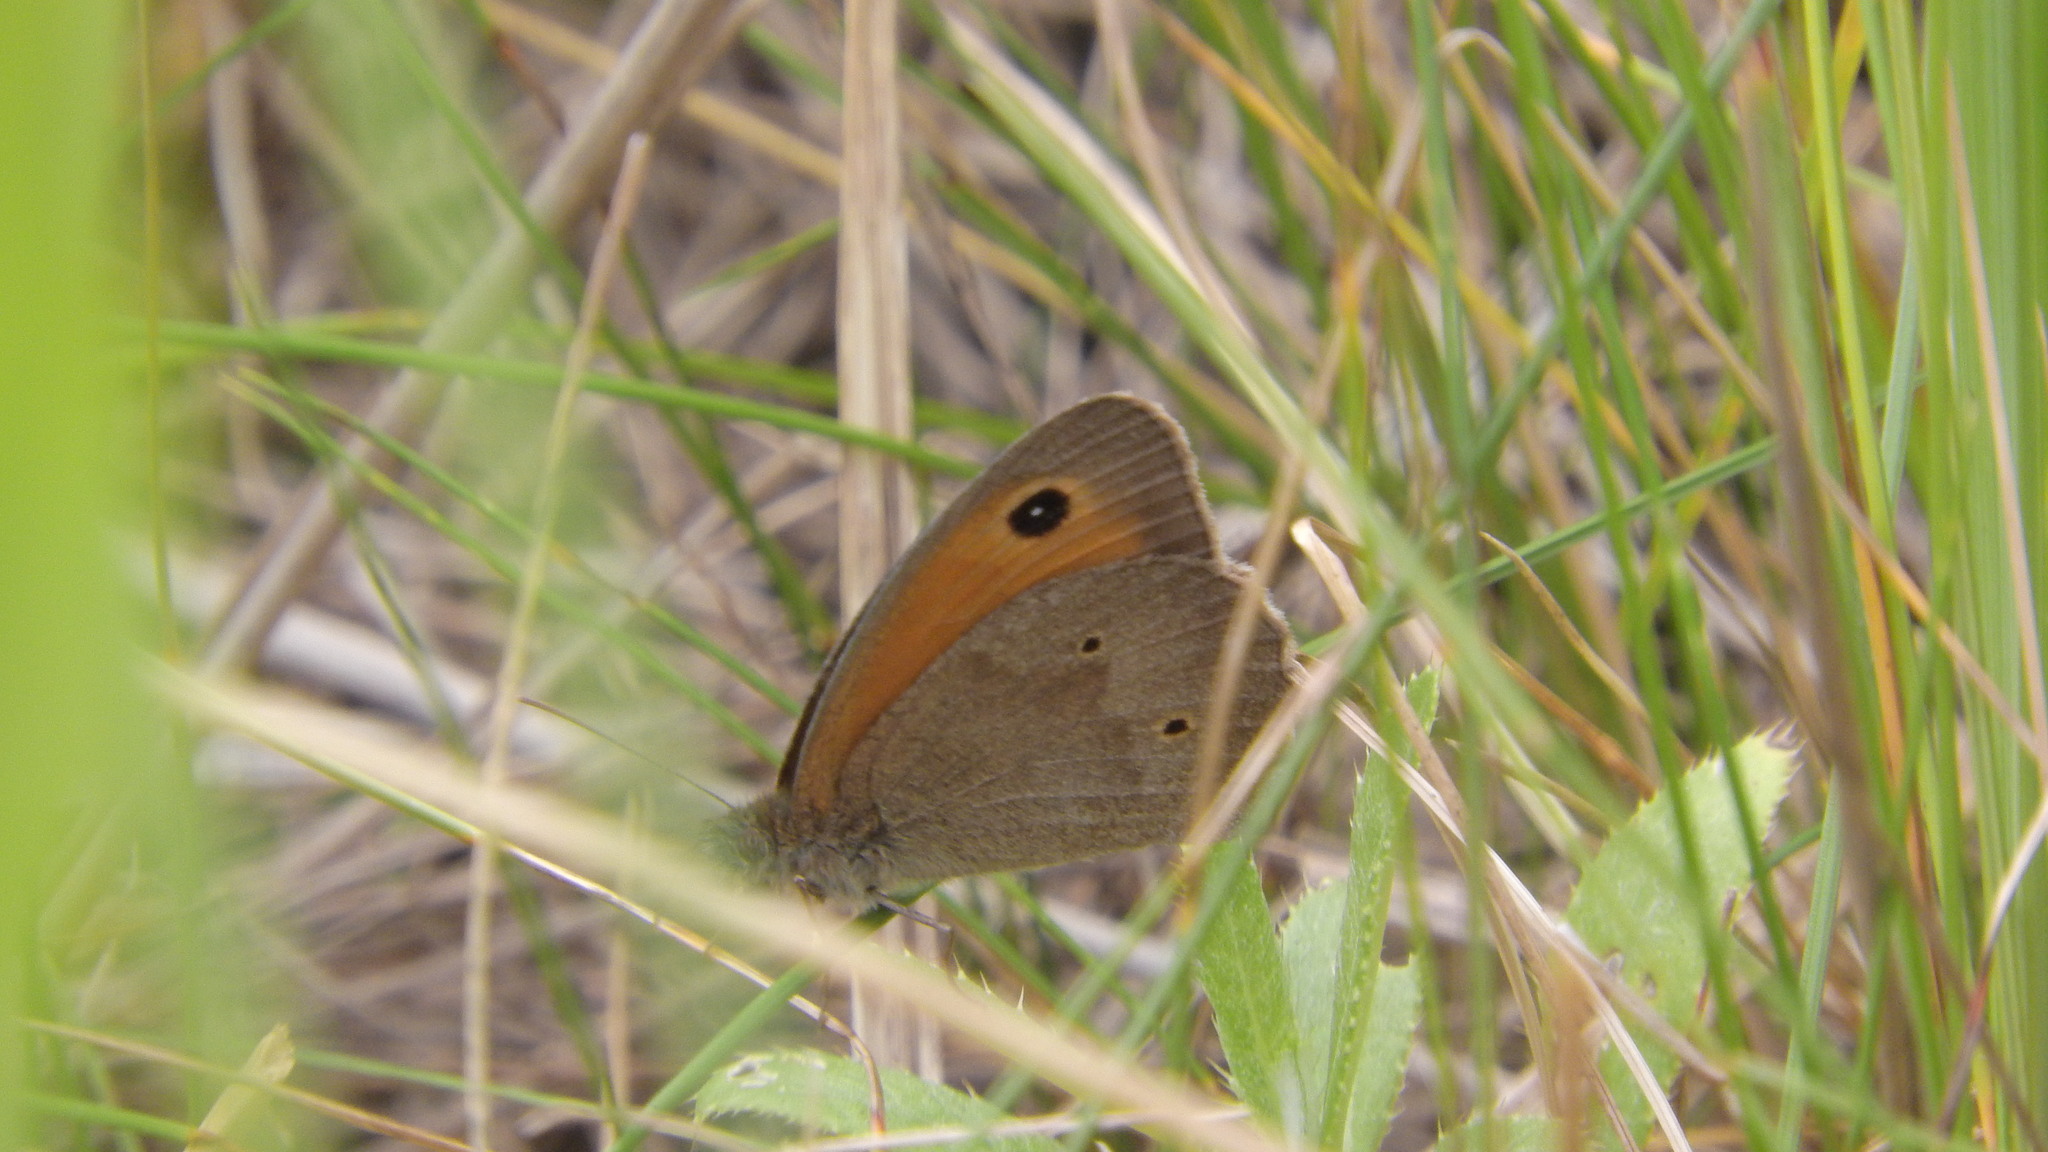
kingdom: Animalia
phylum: Arthropoda
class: Insecta
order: Lepidoptera
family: Nymphalidae
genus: Maniola
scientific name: Maniola jurtina
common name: Meadow brown
